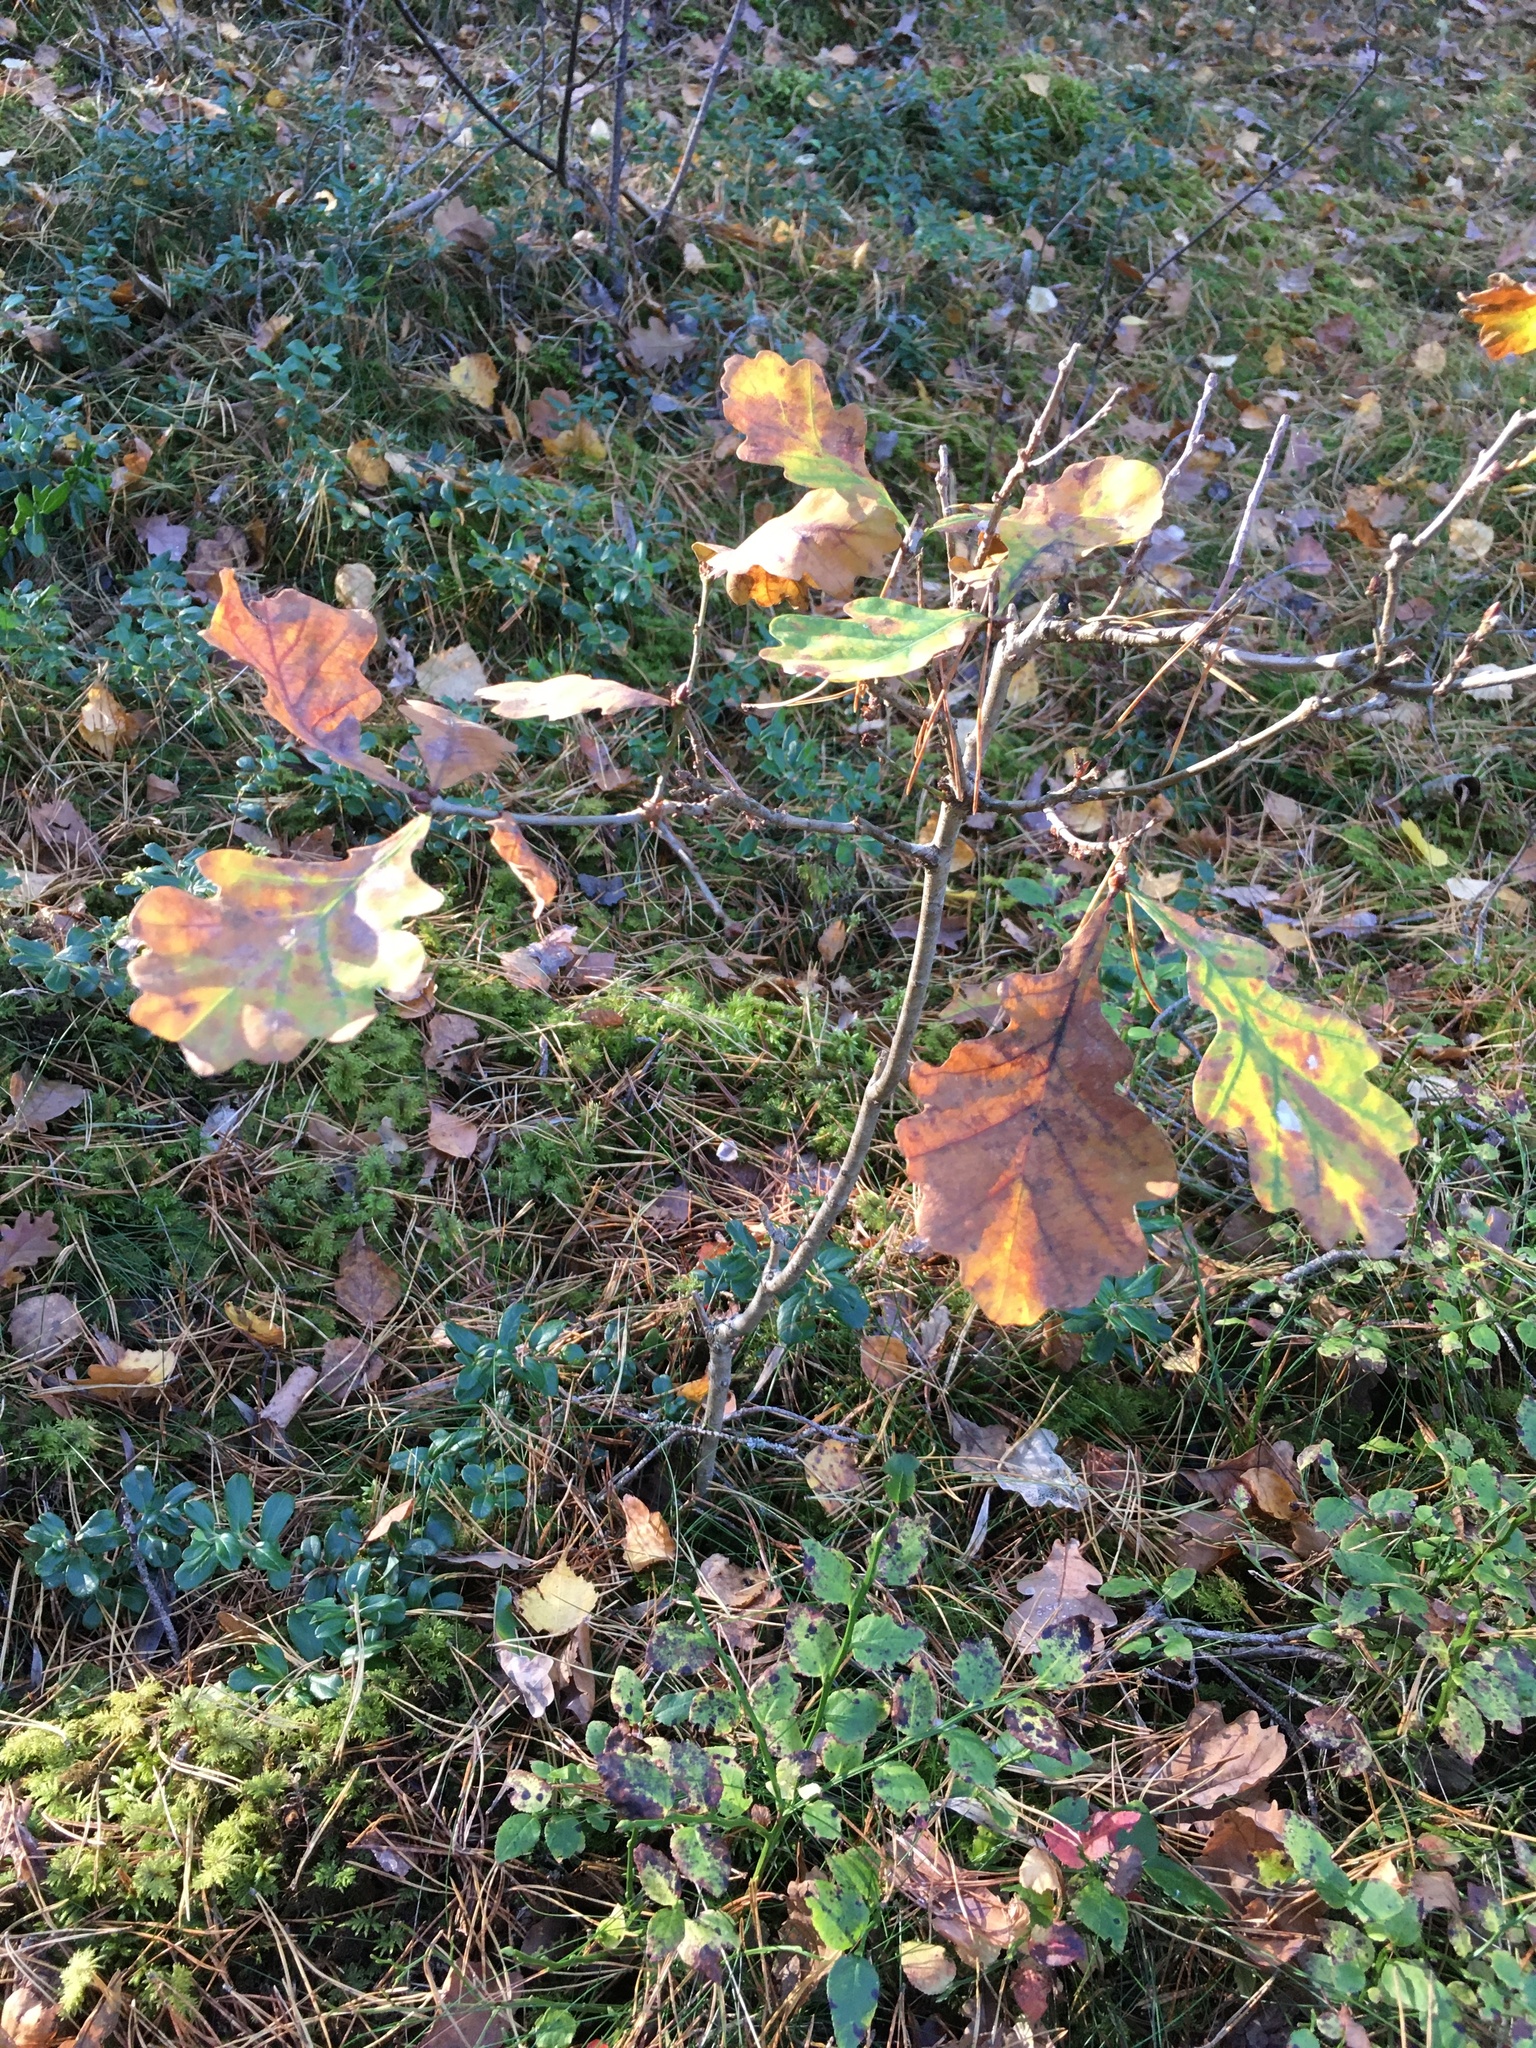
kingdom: Plantae
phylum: Tracheophyta
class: Magnoliopsida
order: Fagales
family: Fagaceae
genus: Quercus
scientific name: Quercus robur
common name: Pedunculate oak
